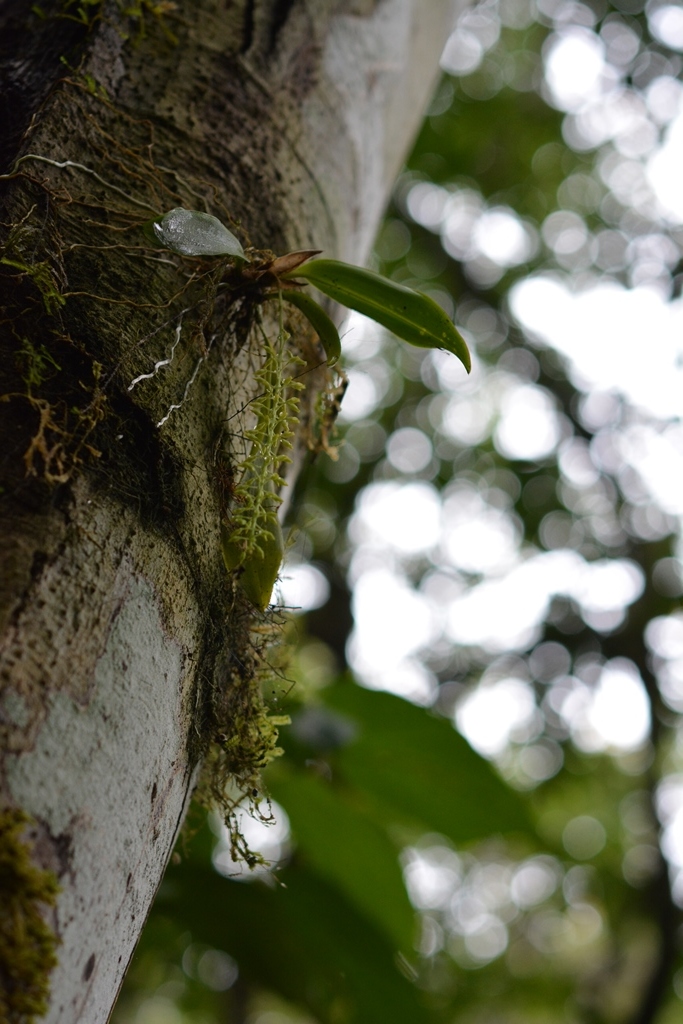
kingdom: Plantae
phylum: Tracheophyta
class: Liliopsida
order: Asparagales
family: Orchidaceae
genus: Notylia
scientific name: Notylia barkeri
